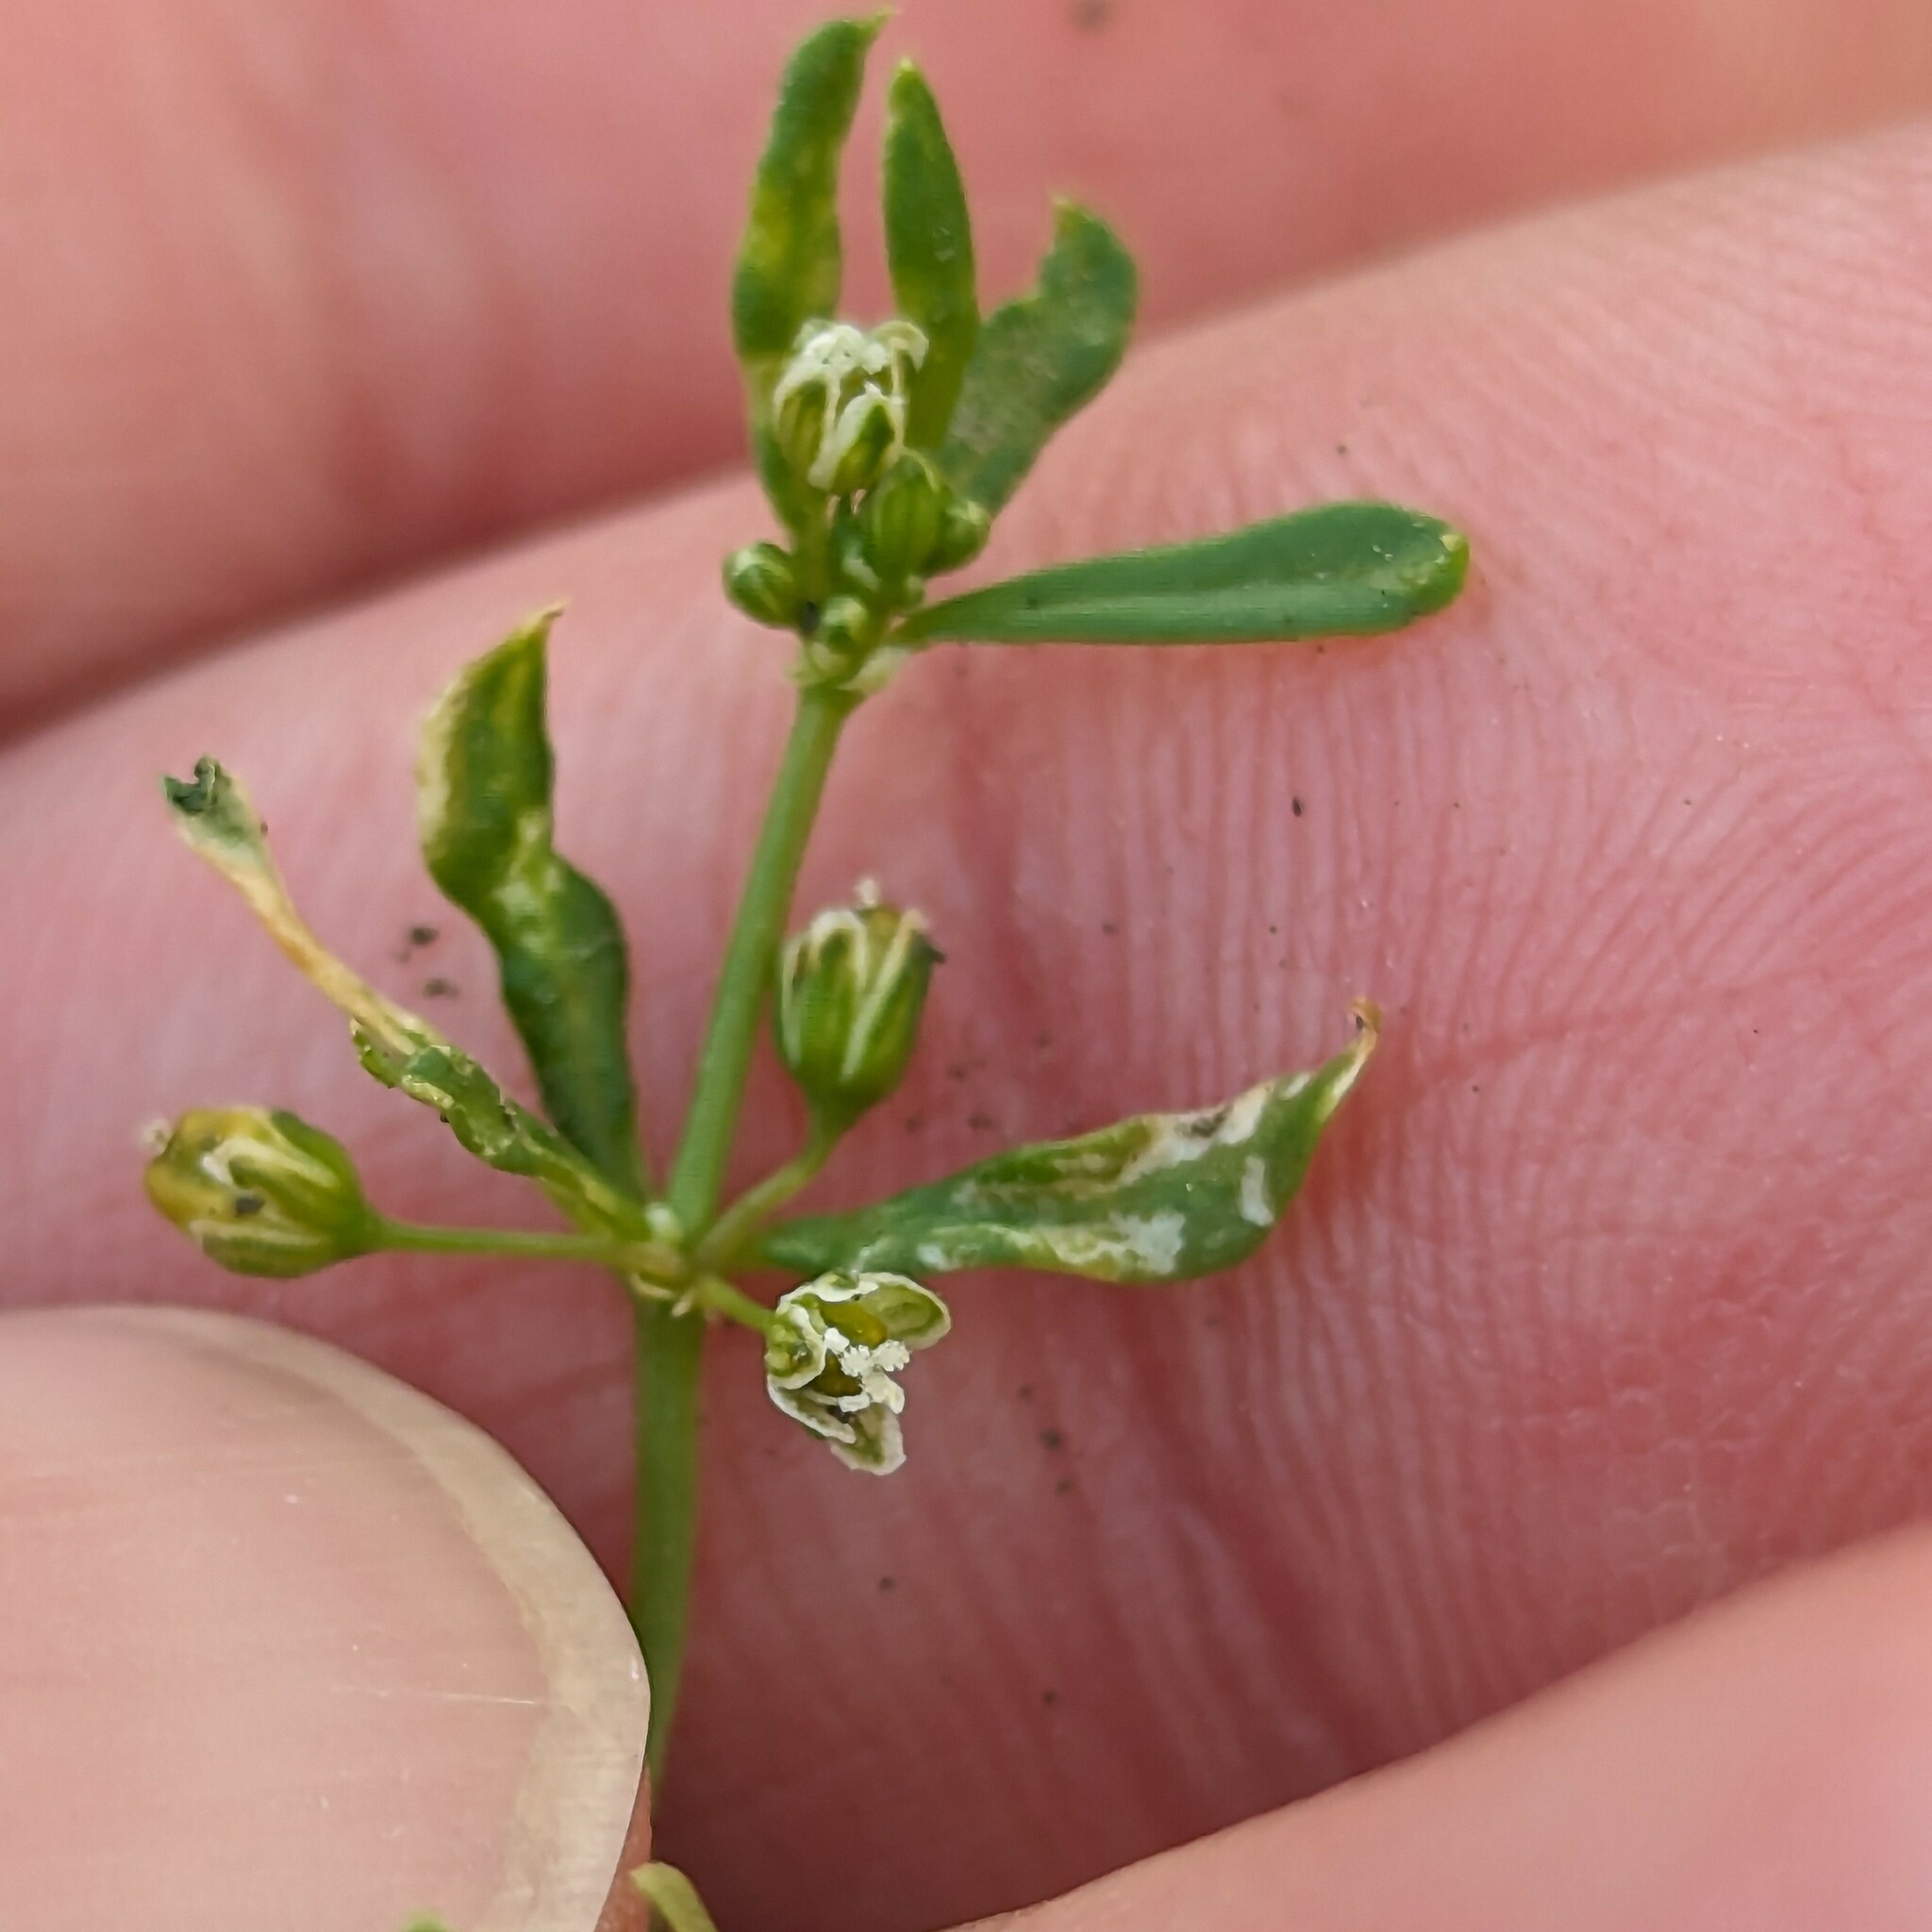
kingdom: Plantae
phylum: Tracheophyta
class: Magnoliopsida
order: Caryophyllales
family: Molluginaceae
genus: Mollugo
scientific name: Mollugo verticillata
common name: Green carpetweed
